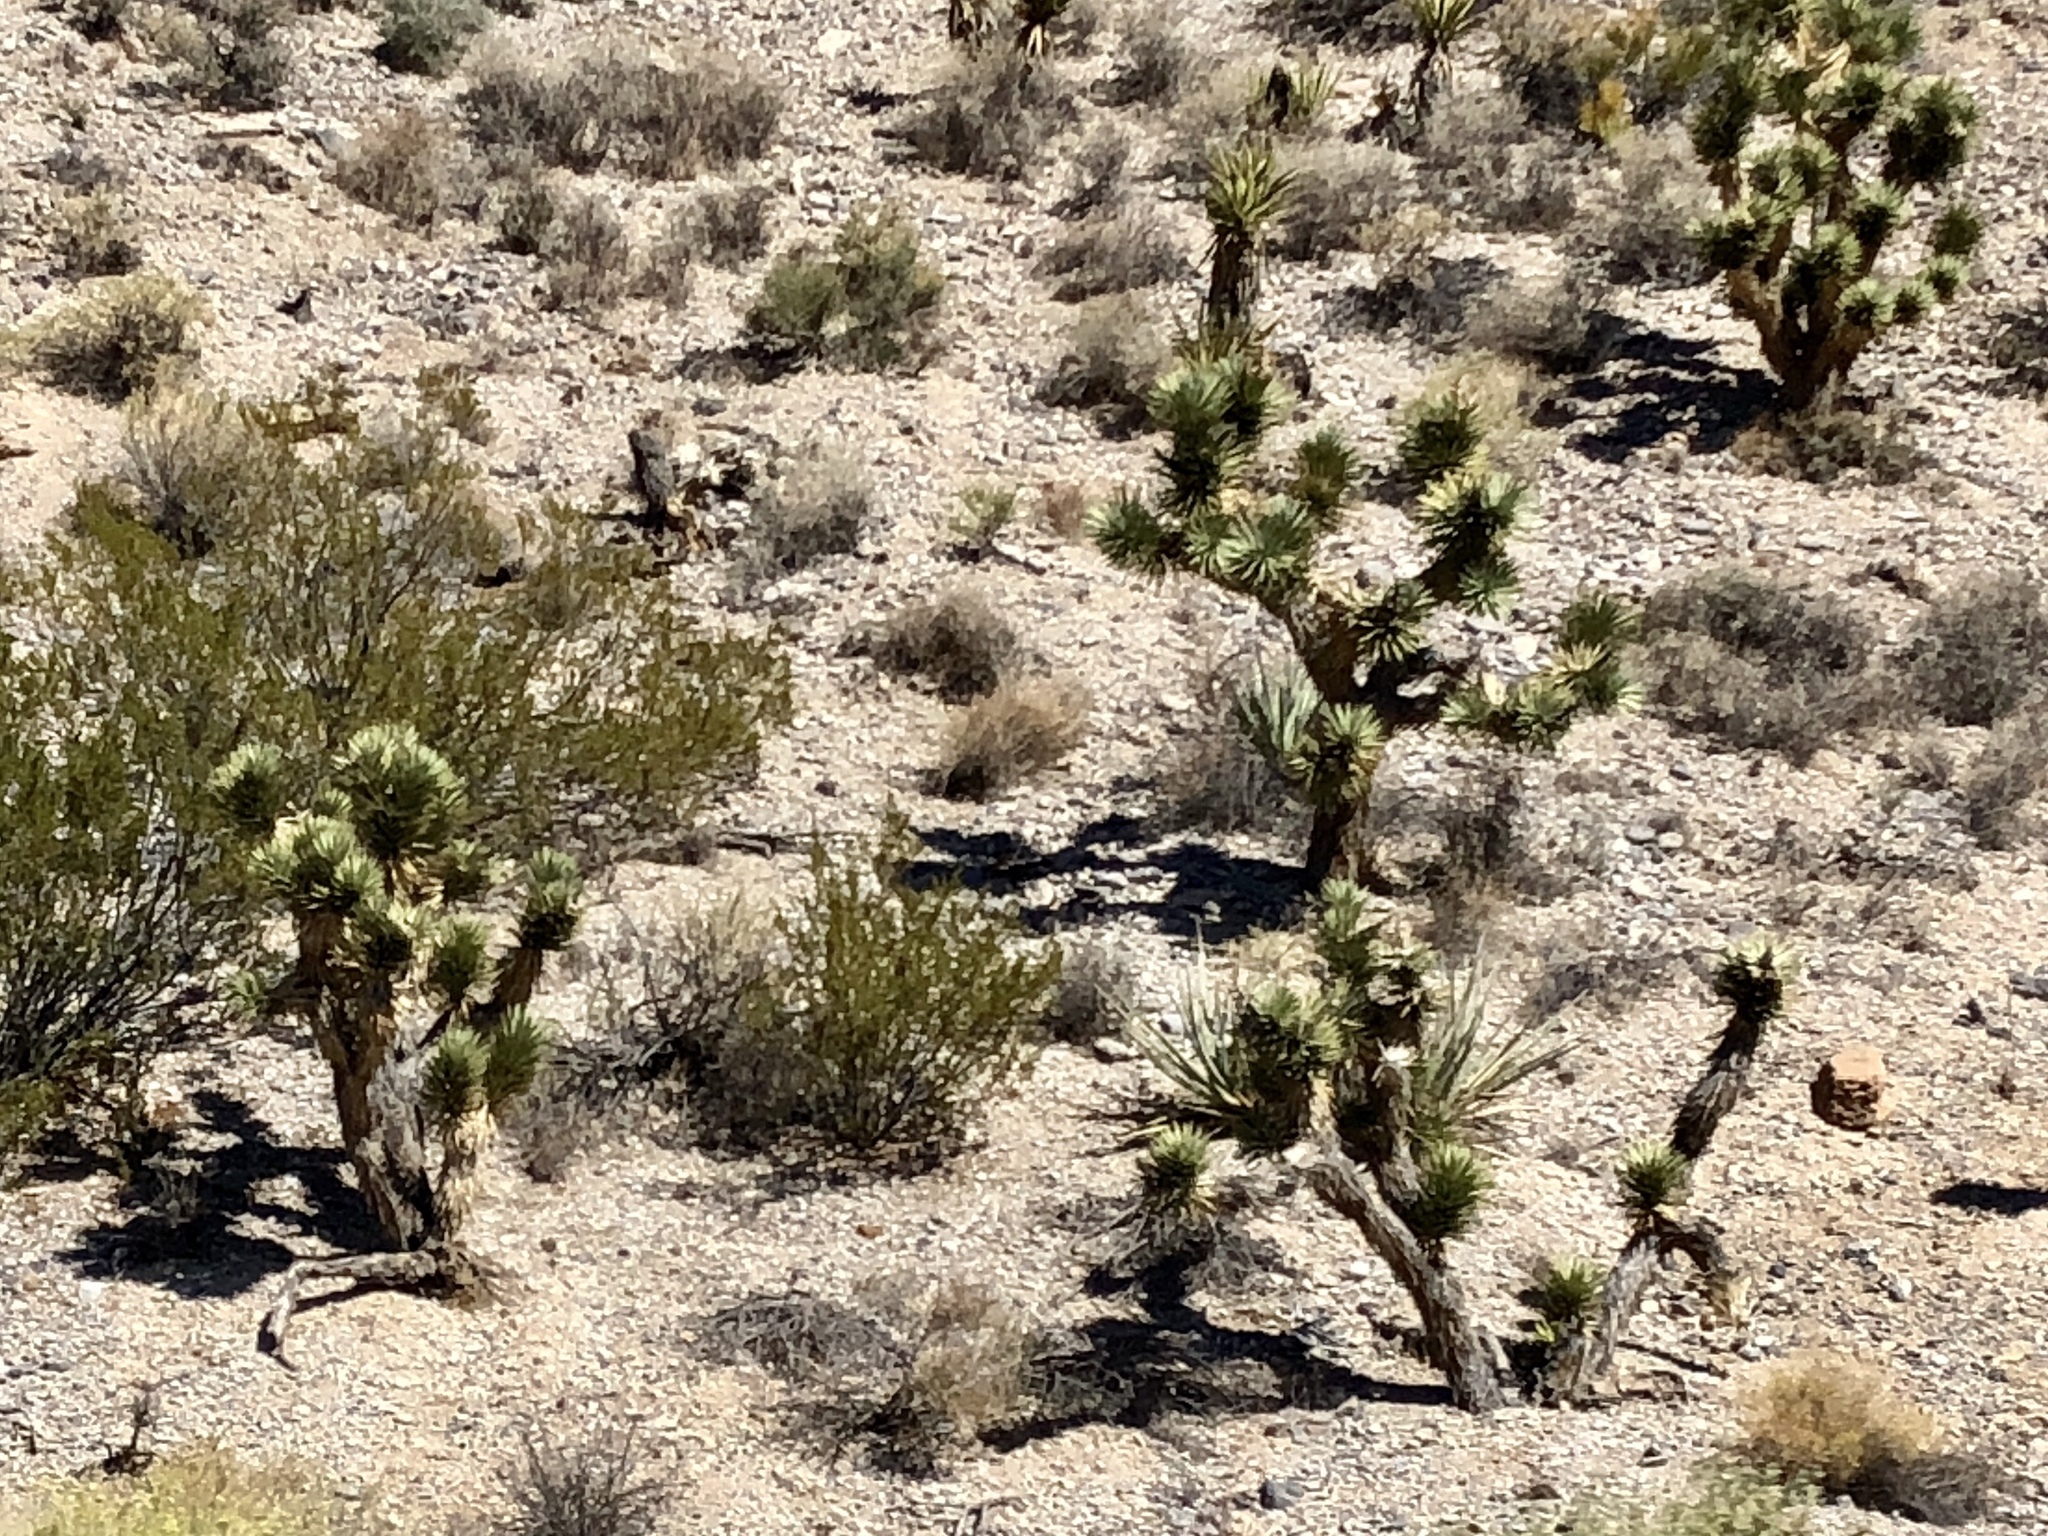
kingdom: Plantae
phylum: Tracheophyta
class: Liliopsida
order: Asparagales
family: Asparagaceae
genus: Yucca
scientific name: Yucca brevifolia
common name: Joshua tree
